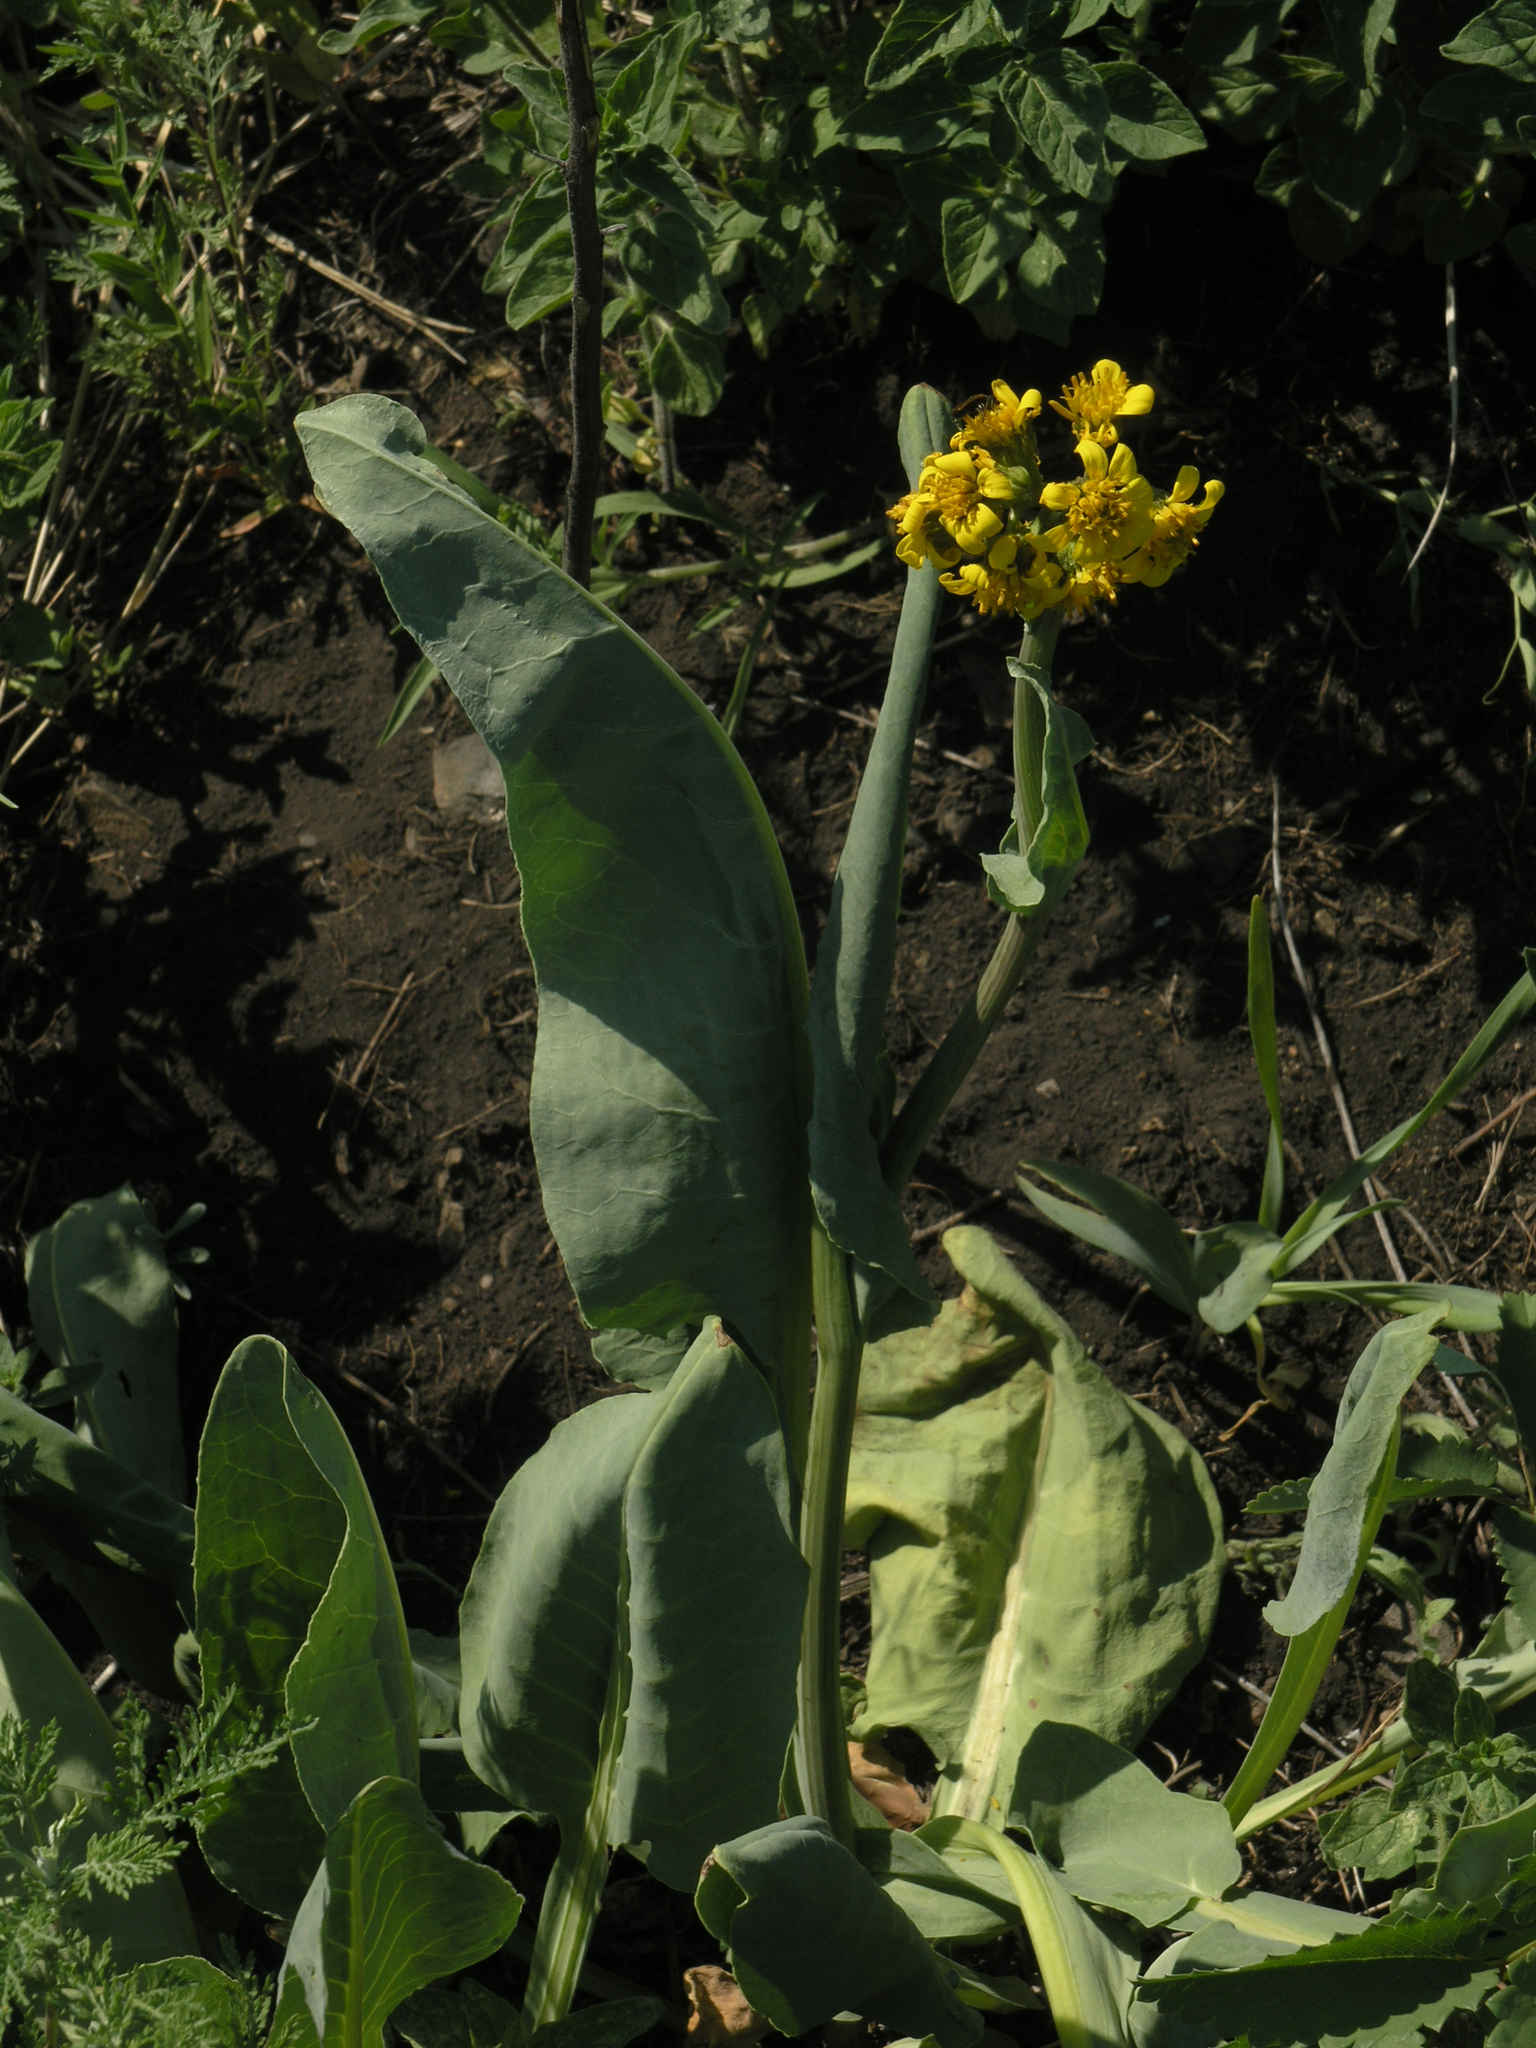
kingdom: Plantae
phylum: Tracheophyta
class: Magnoliopsida
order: Asterales
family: Asteraceae
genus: Ligularia
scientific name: Ligularia glauca
